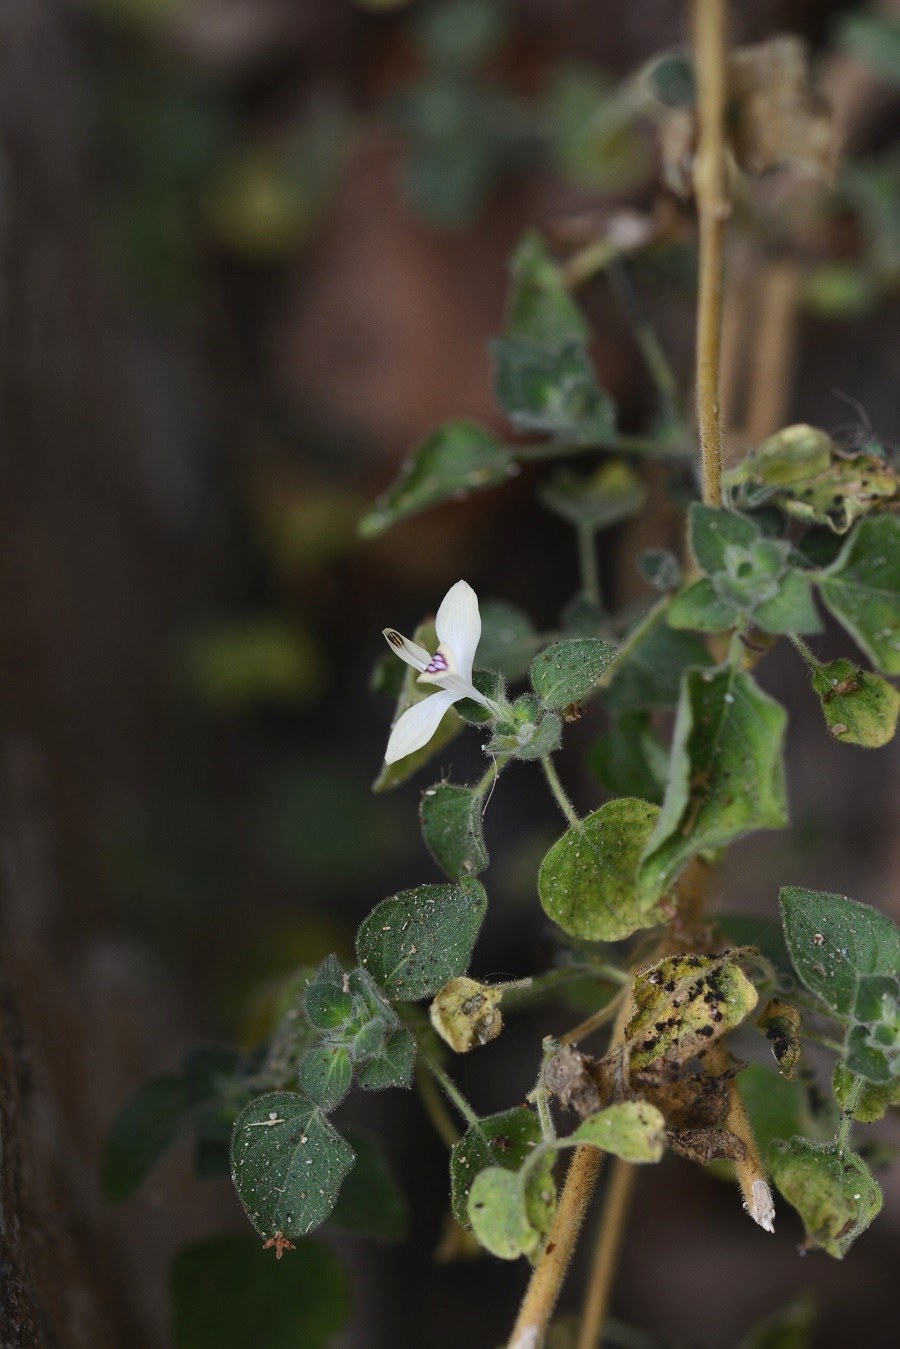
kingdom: Plantae
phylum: Tracheophyta
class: Magnoliopsida
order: Lamiales
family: Acanthaceae
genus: Carlowrightia
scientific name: Carlowrightia arizonica
